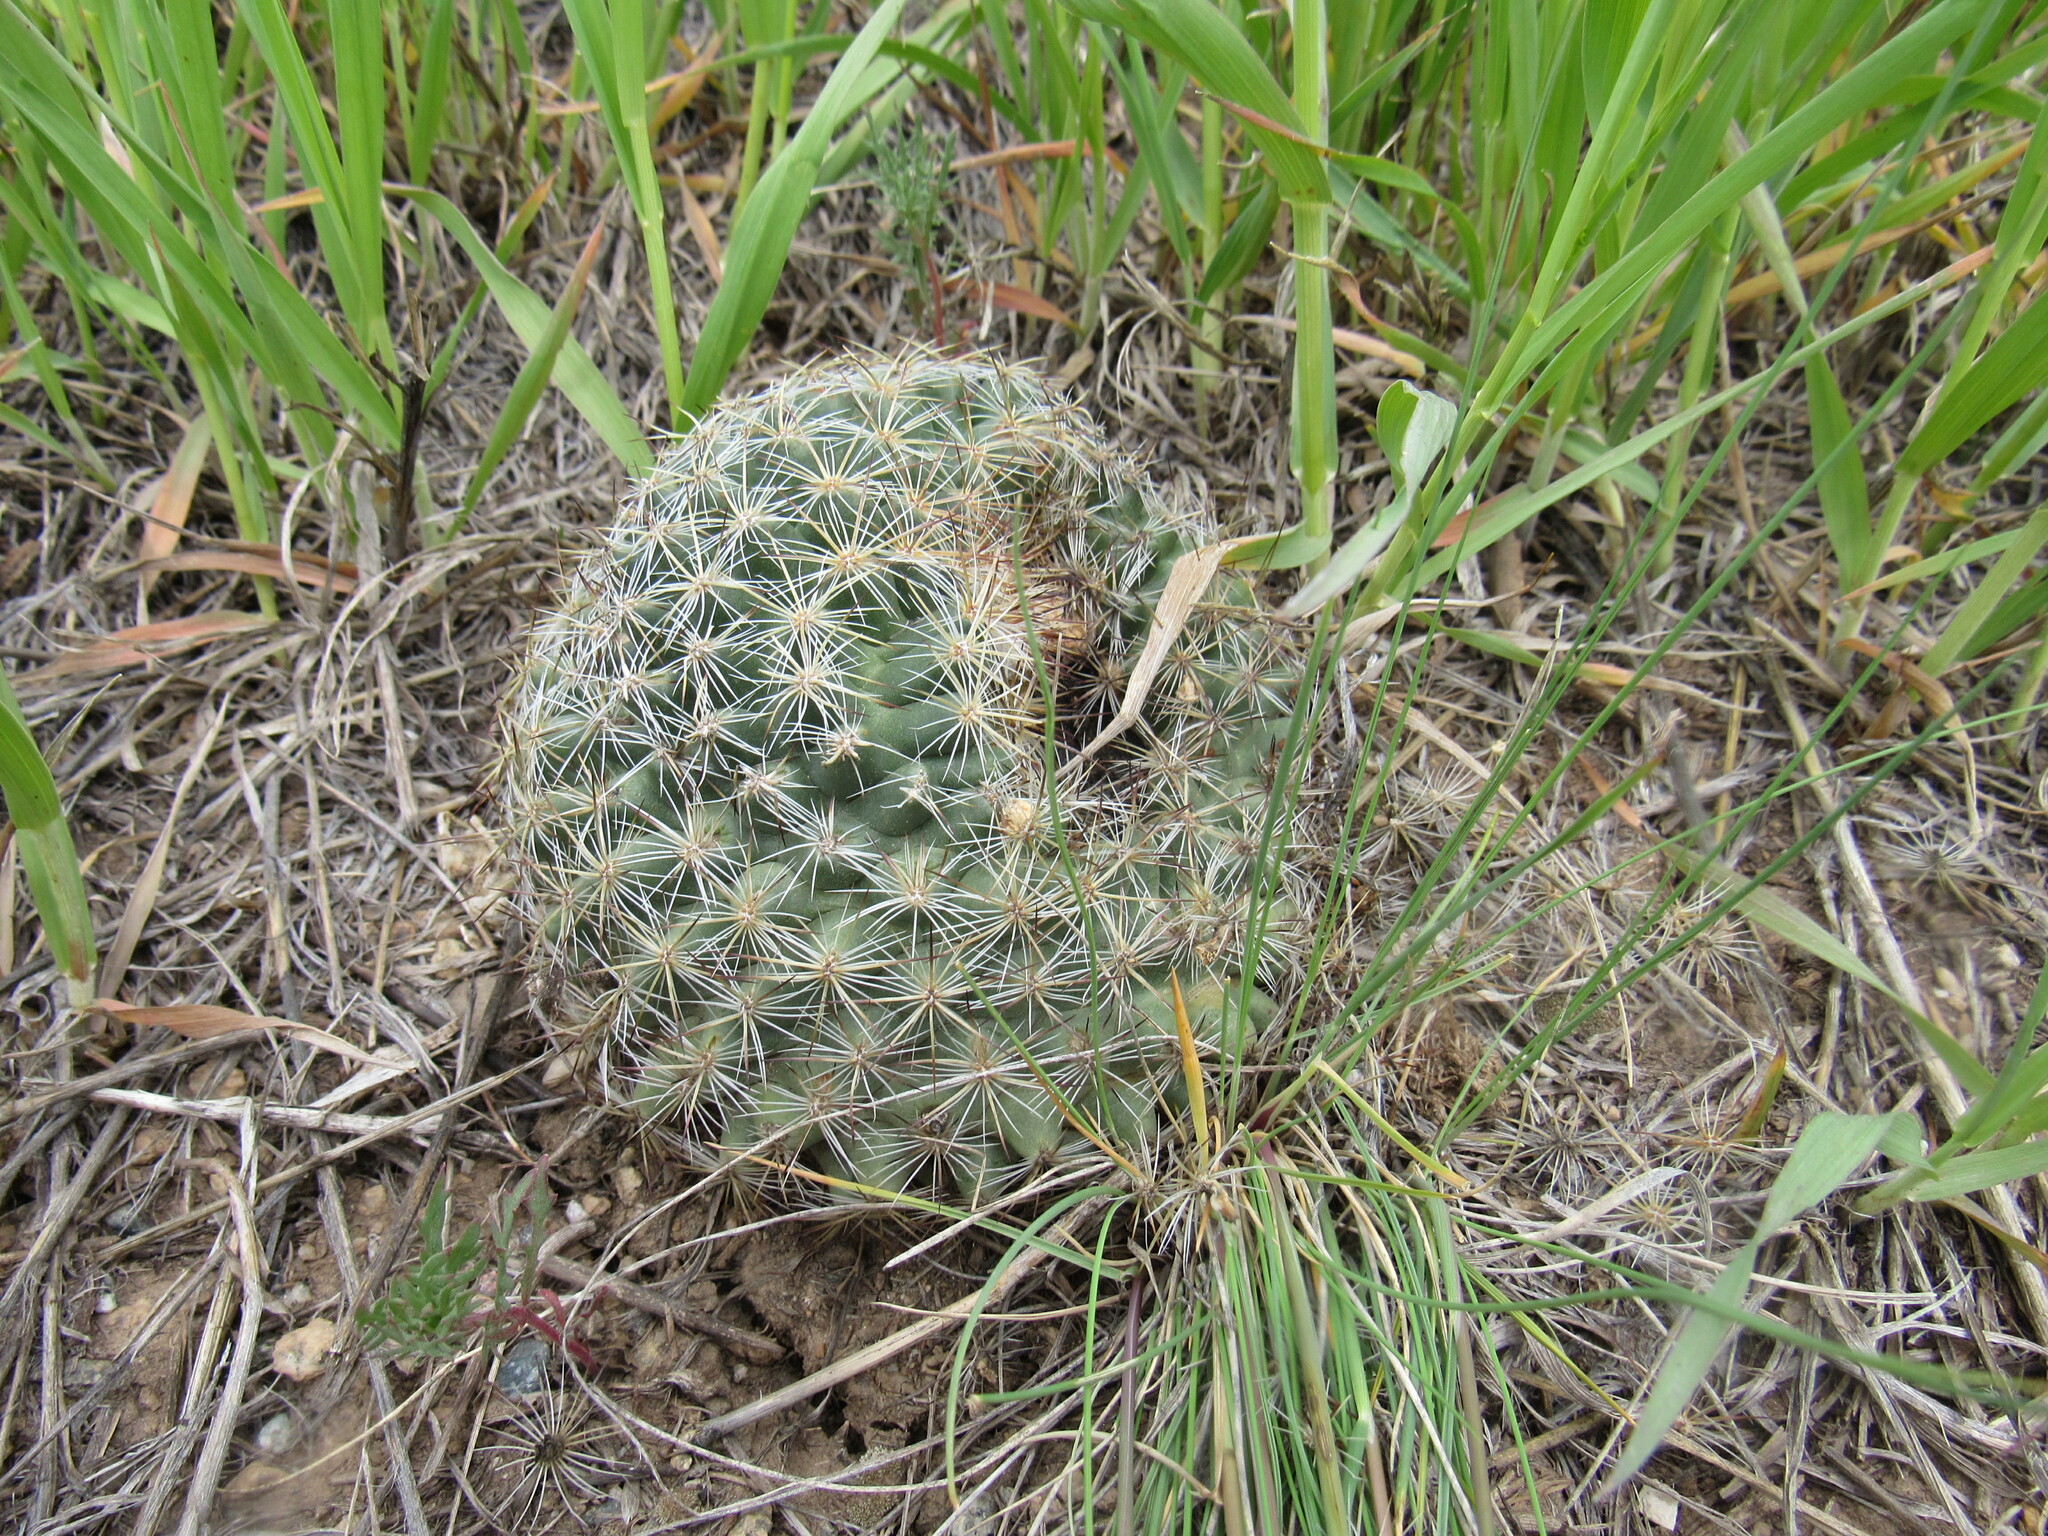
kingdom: Plantae
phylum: Tracheophyta
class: Magnoliopsida
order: Caryophyllales
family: Cactaceae
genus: Pediocactus
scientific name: Pediocactus simpsonii
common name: Simpson's hedgehog cactus
